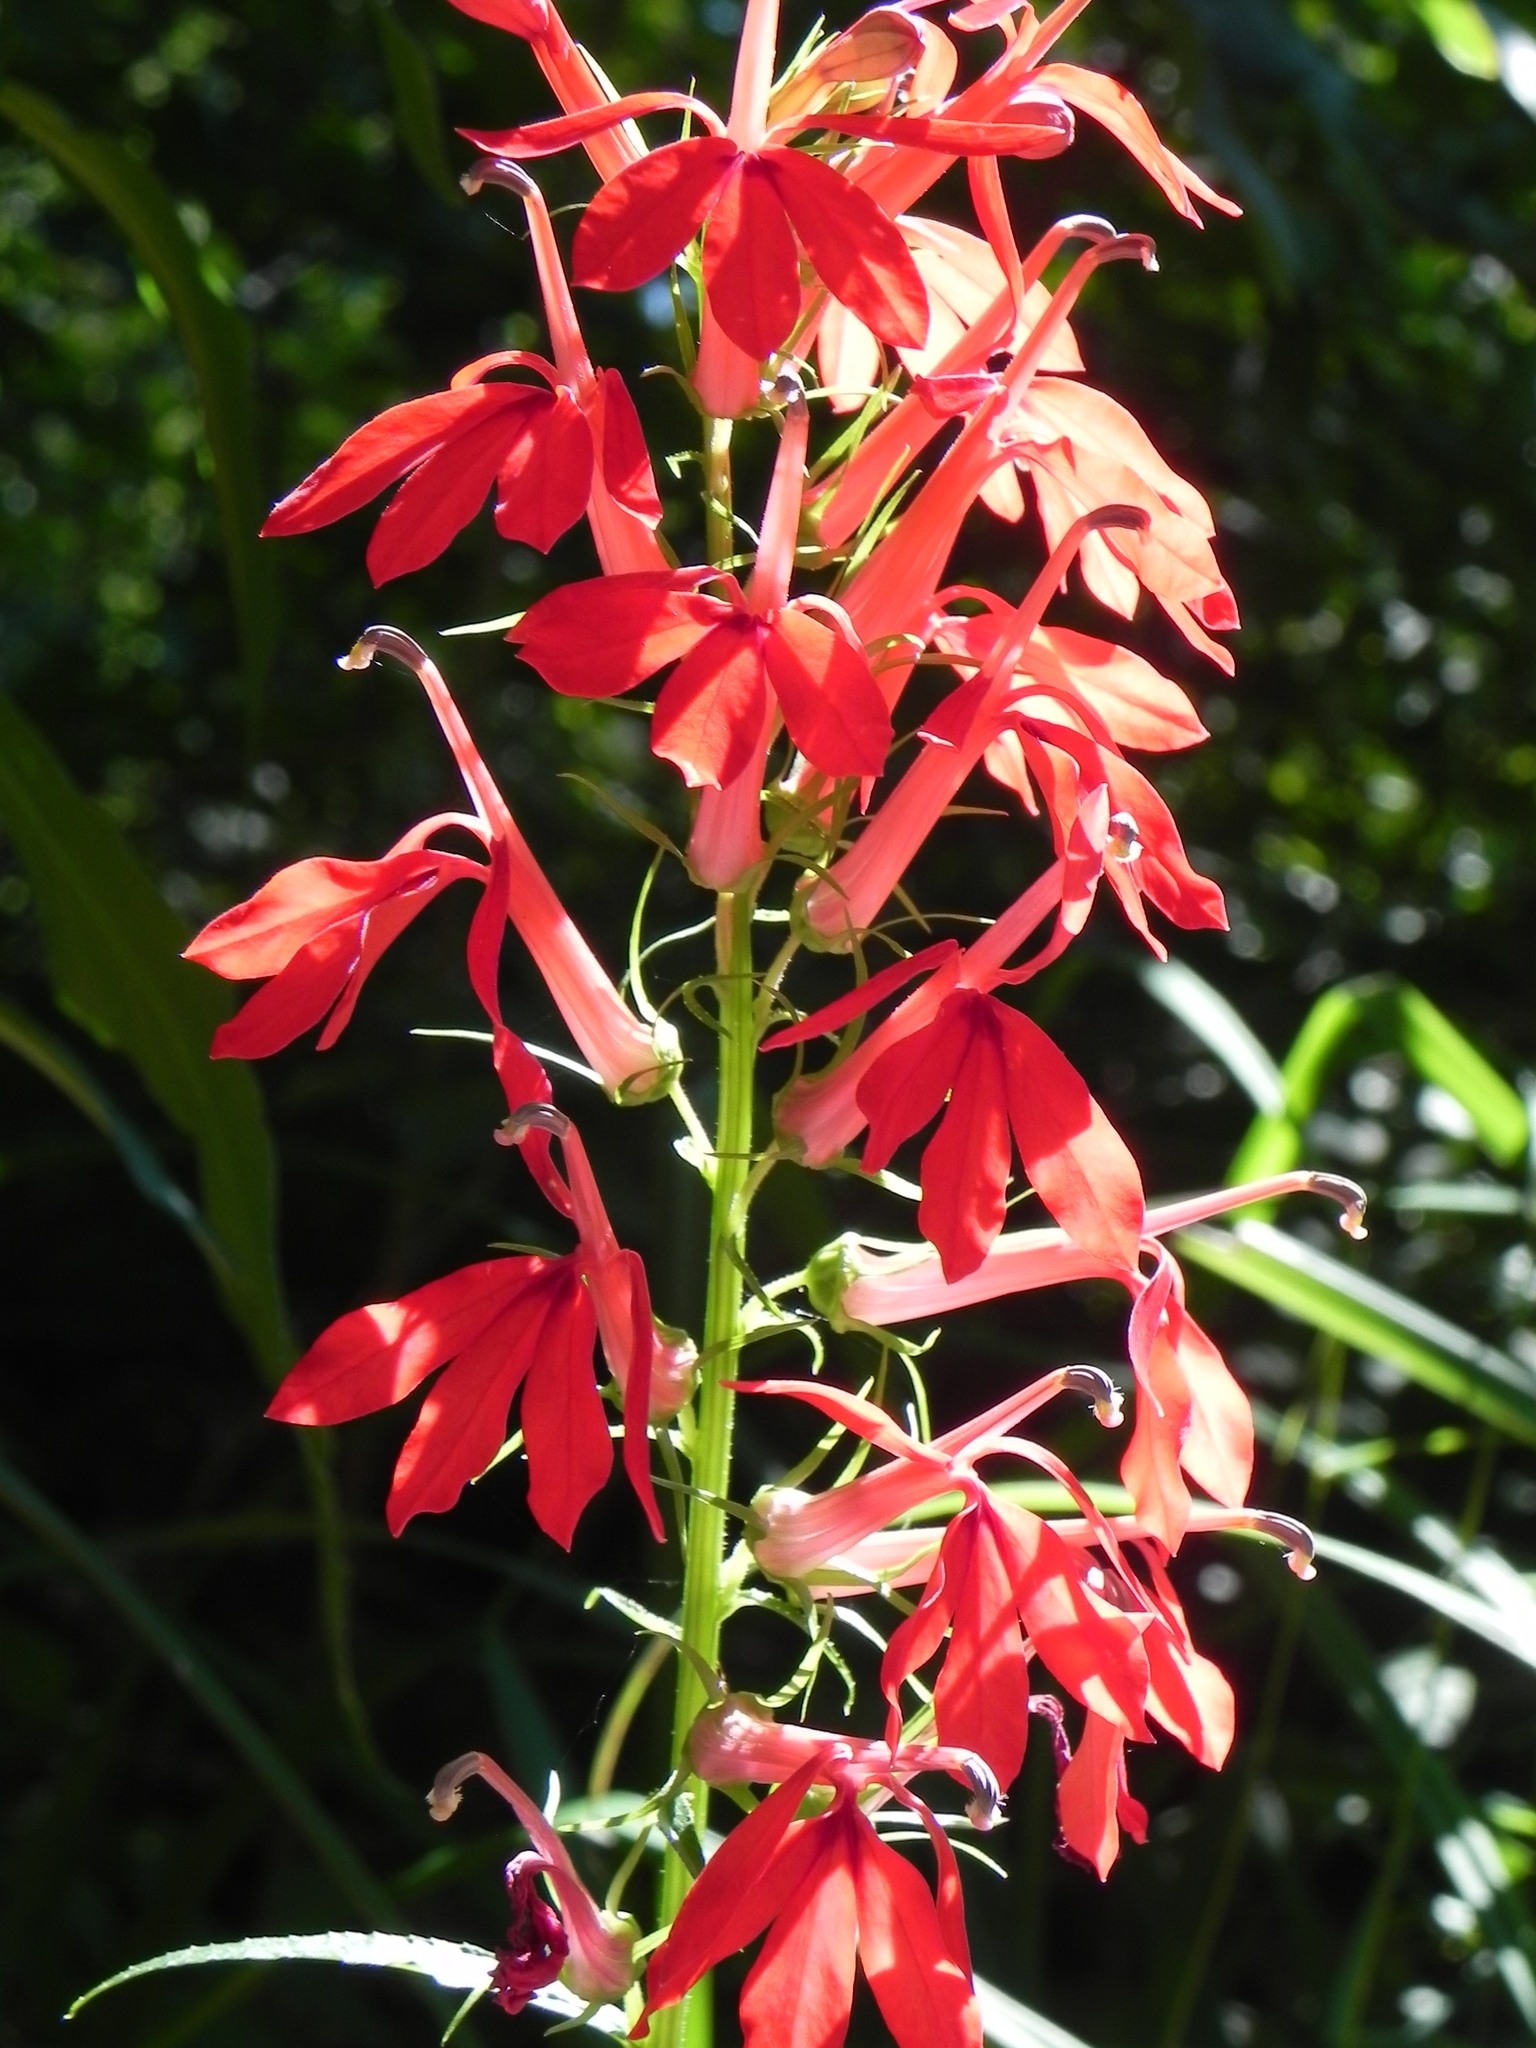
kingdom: Plantae
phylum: Tracheophyta
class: Magnoliopsida
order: Asterales
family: Campanulaceae
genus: Lobelia
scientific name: Lobelia cardinalis
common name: Cardinal flower
